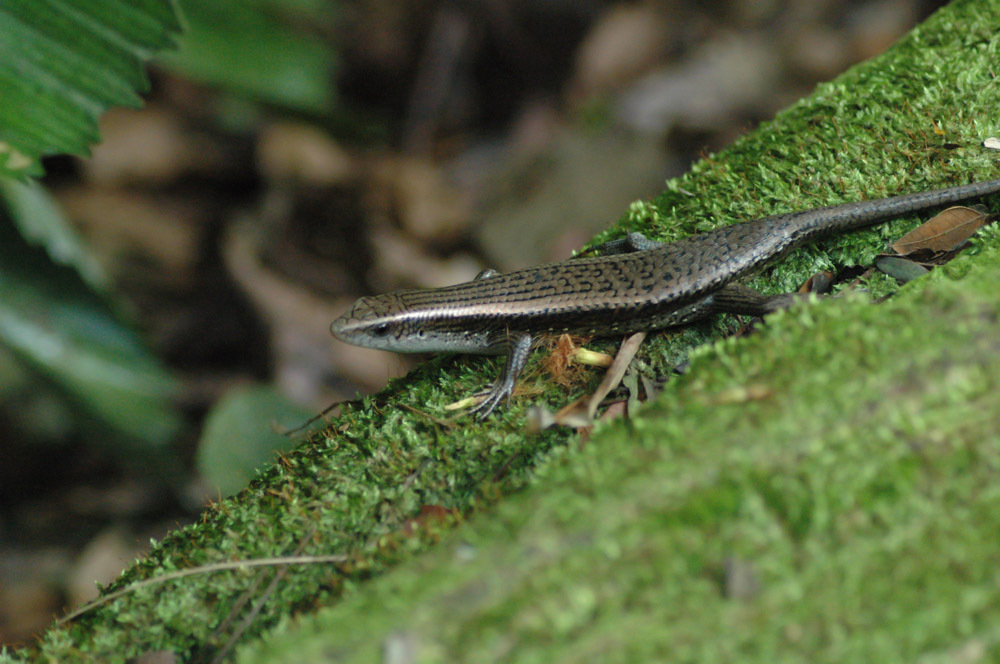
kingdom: Animalia
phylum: Chordata
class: Squamata
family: Scincidae
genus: Eutropis
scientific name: Eutropis multifasciata
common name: Common mabuya
